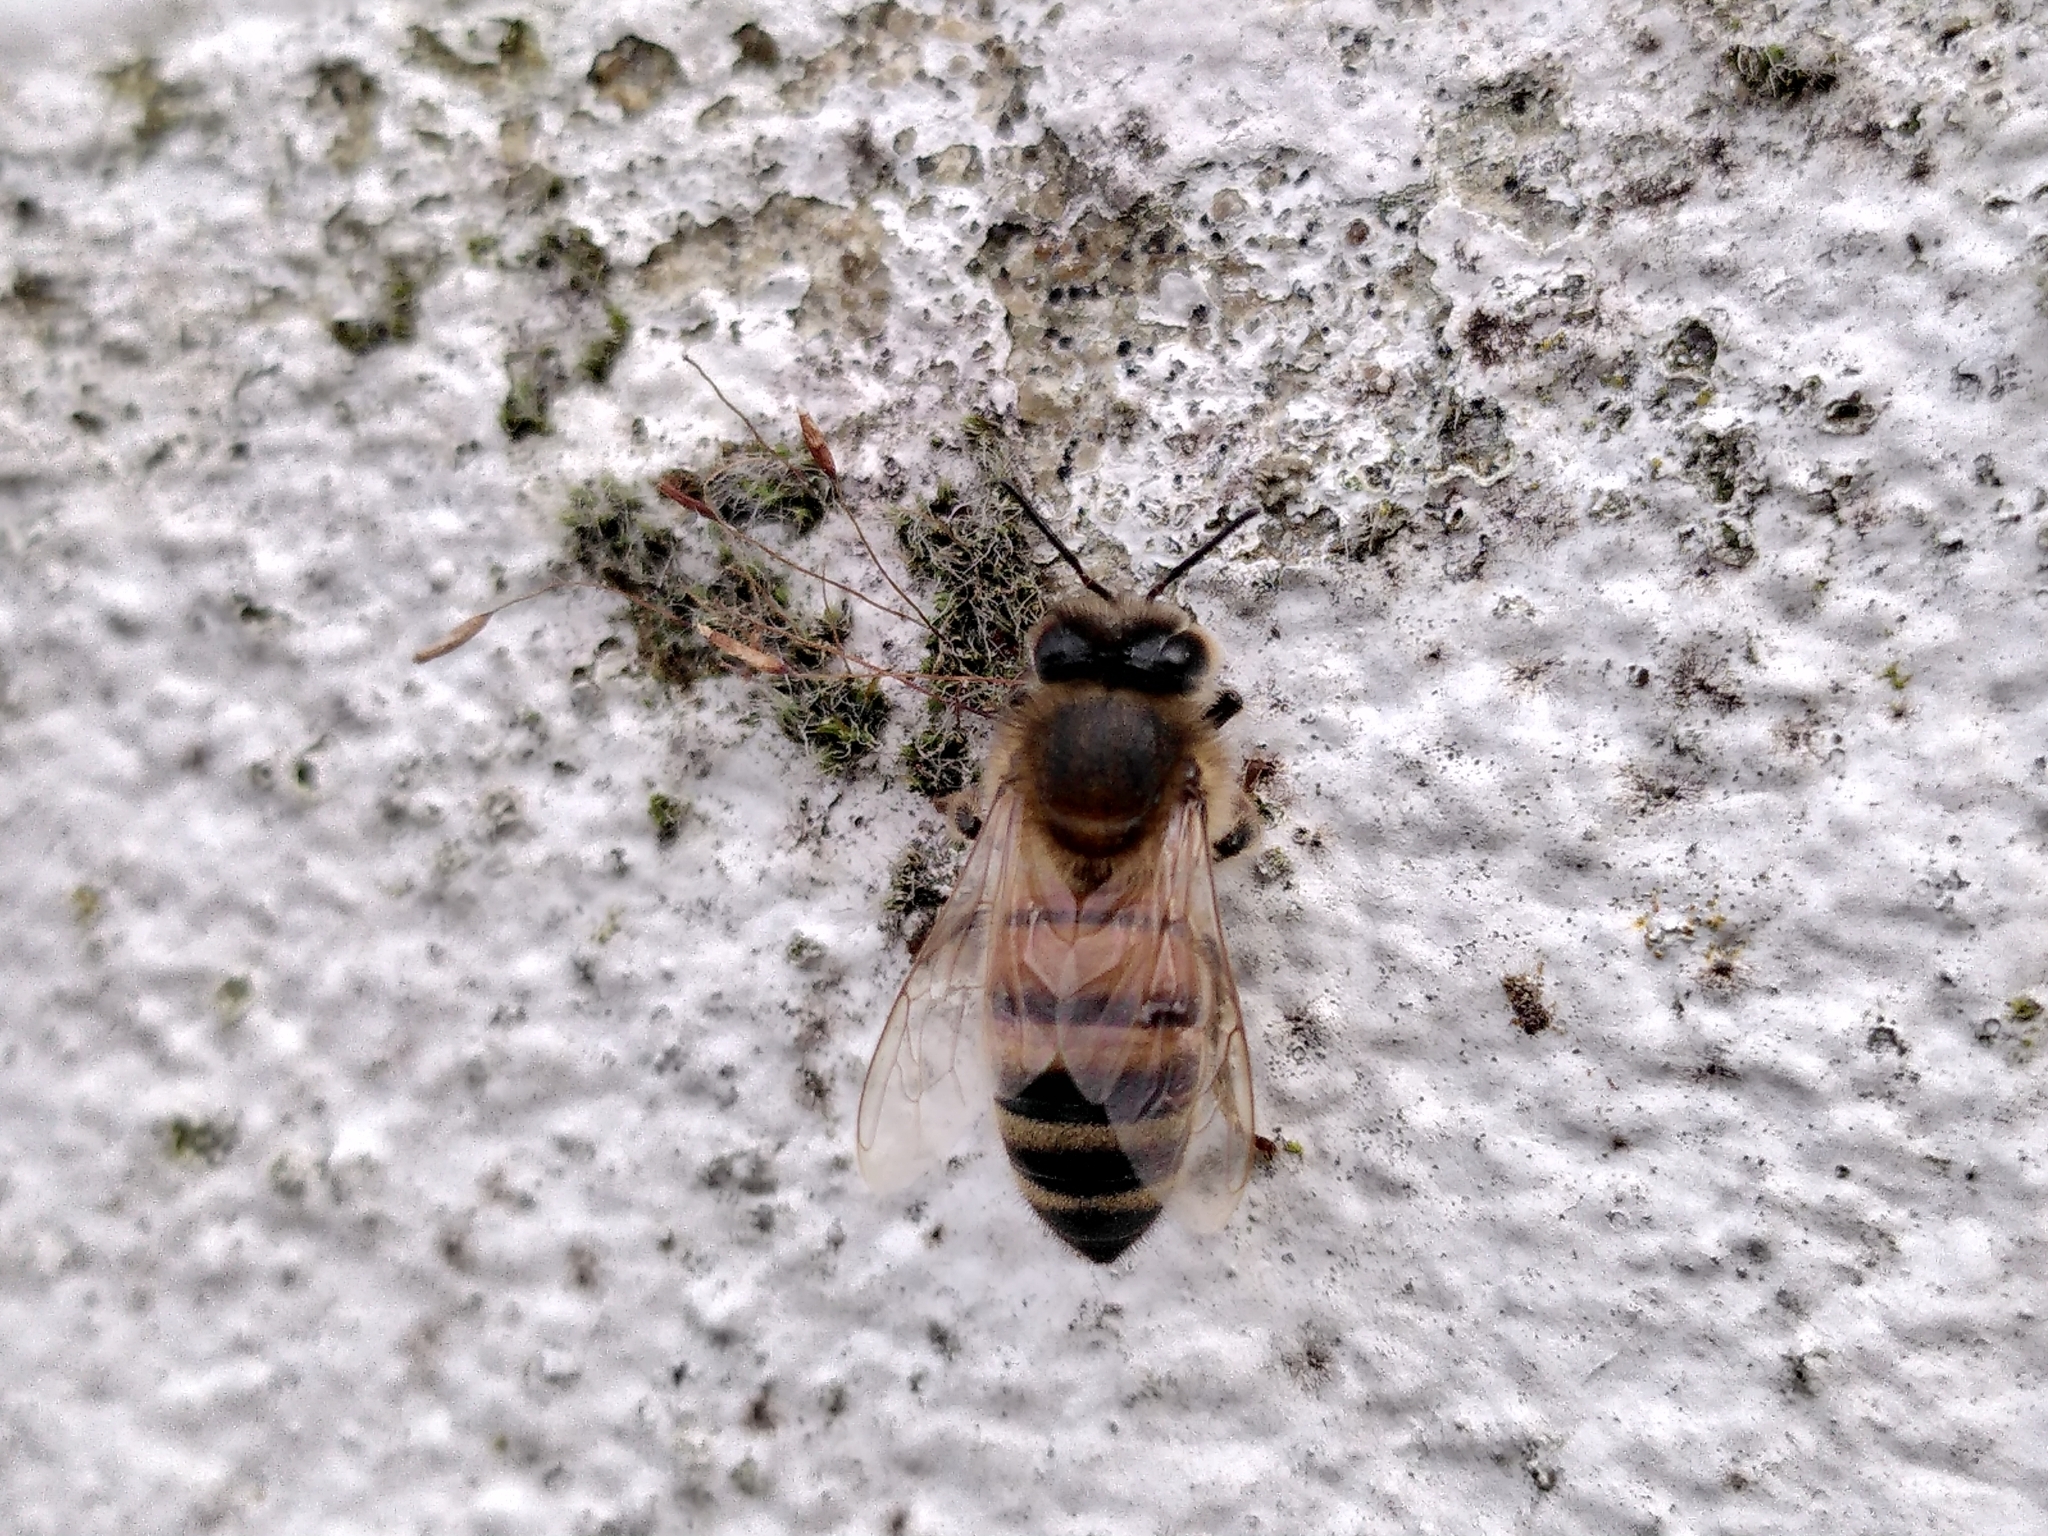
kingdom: Animalia
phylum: Arthropoda
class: Insecta
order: Hymenoptera
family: Apidae
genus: Apis
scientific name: Apis mellifera
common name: Honey bee
